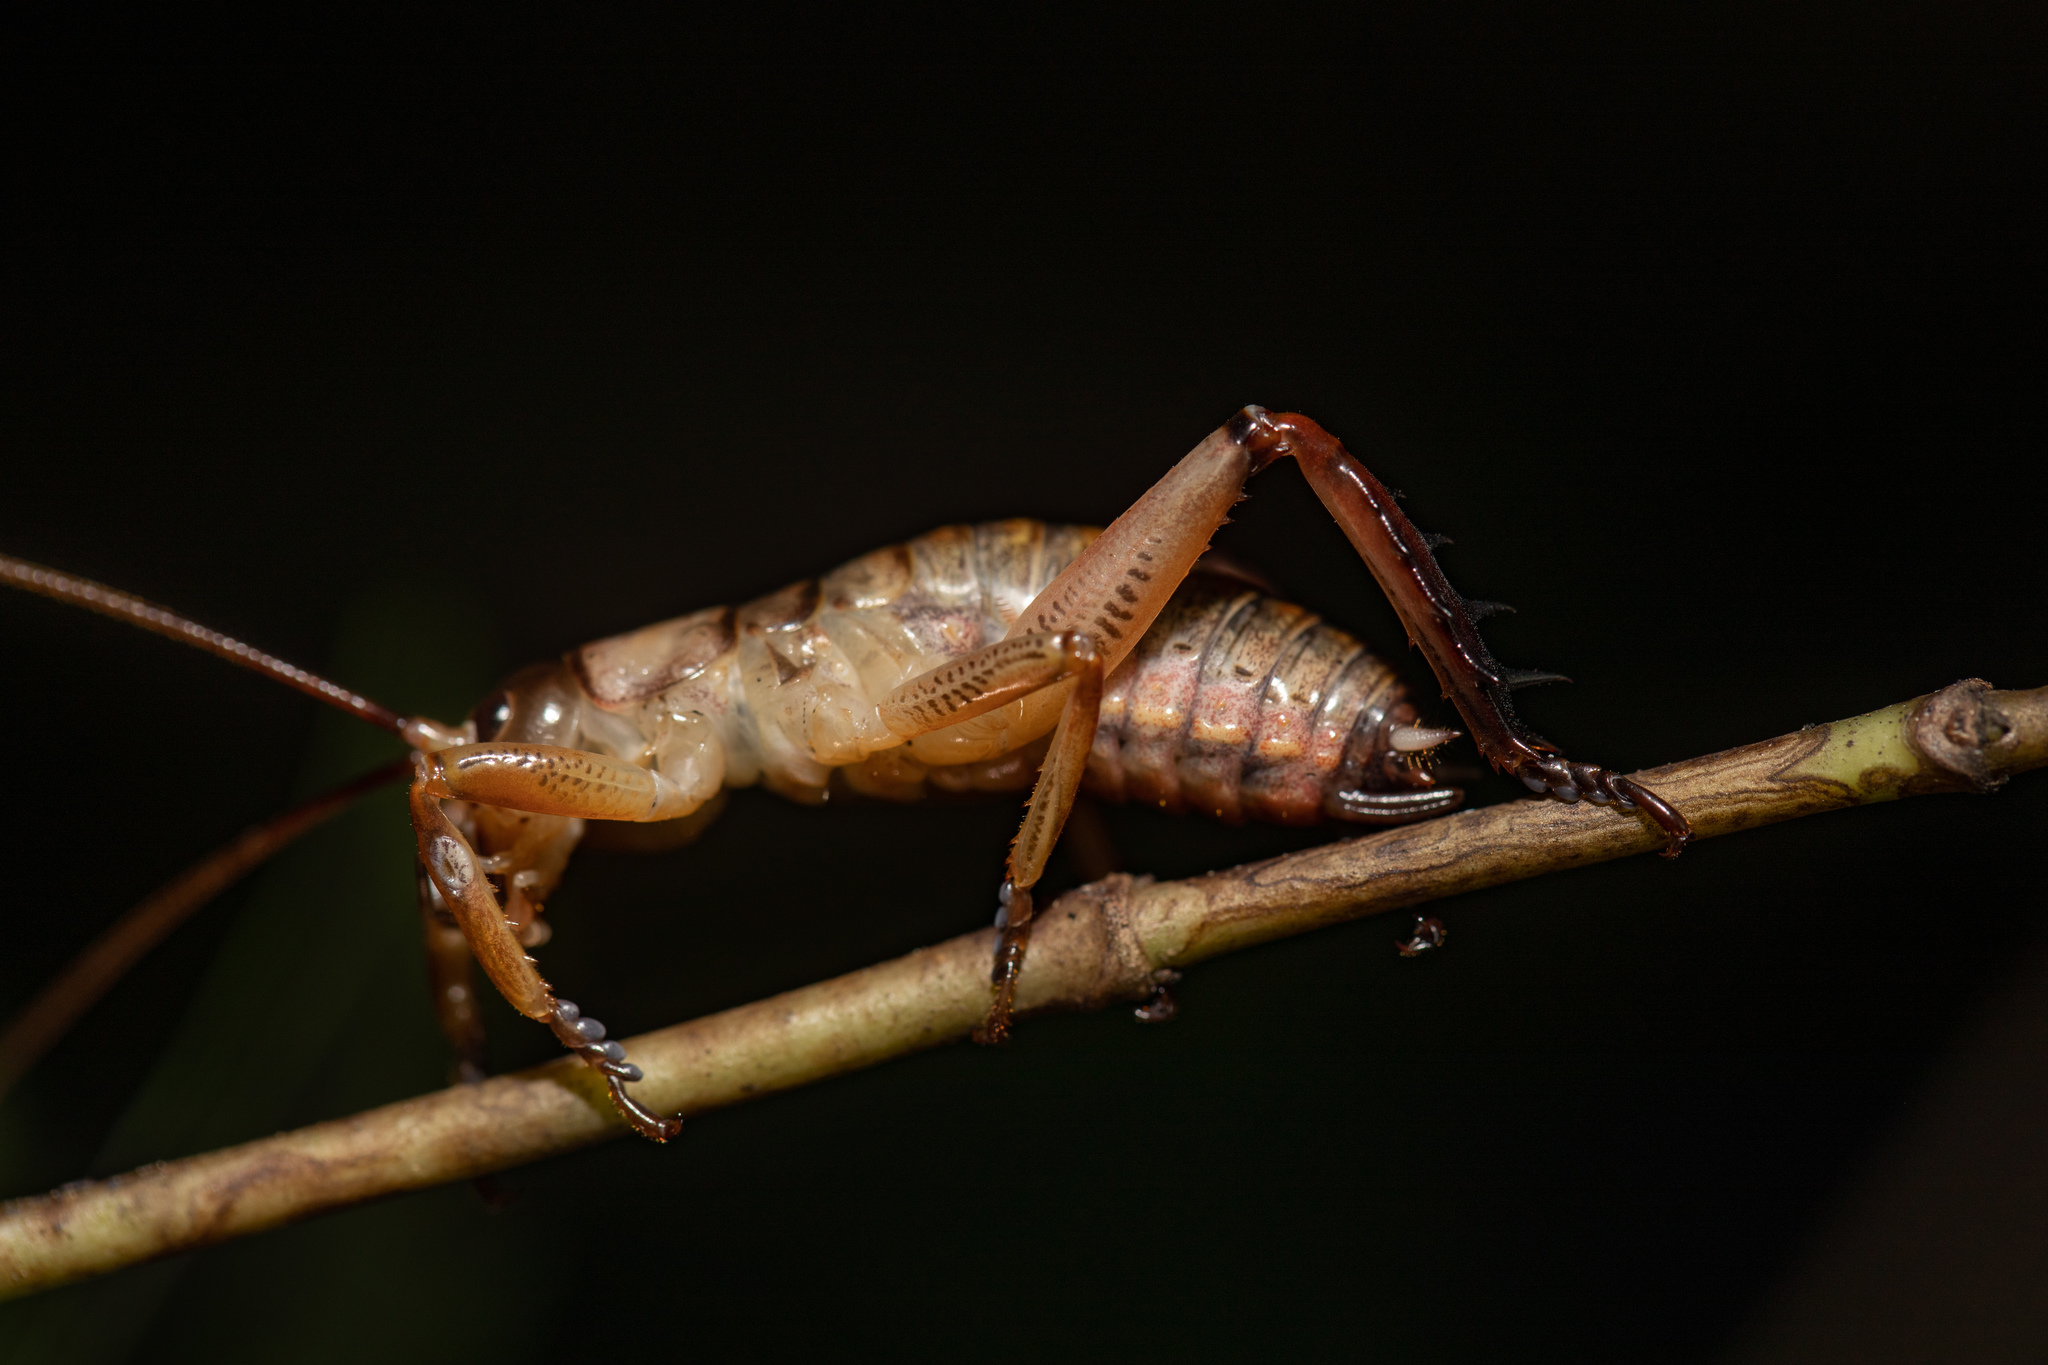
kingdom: Animalia
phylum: Arthropoda
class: Insecta
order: Orthoptera
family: Anostostomatidae
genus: Hemideina
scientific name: Hemideina thoracica
